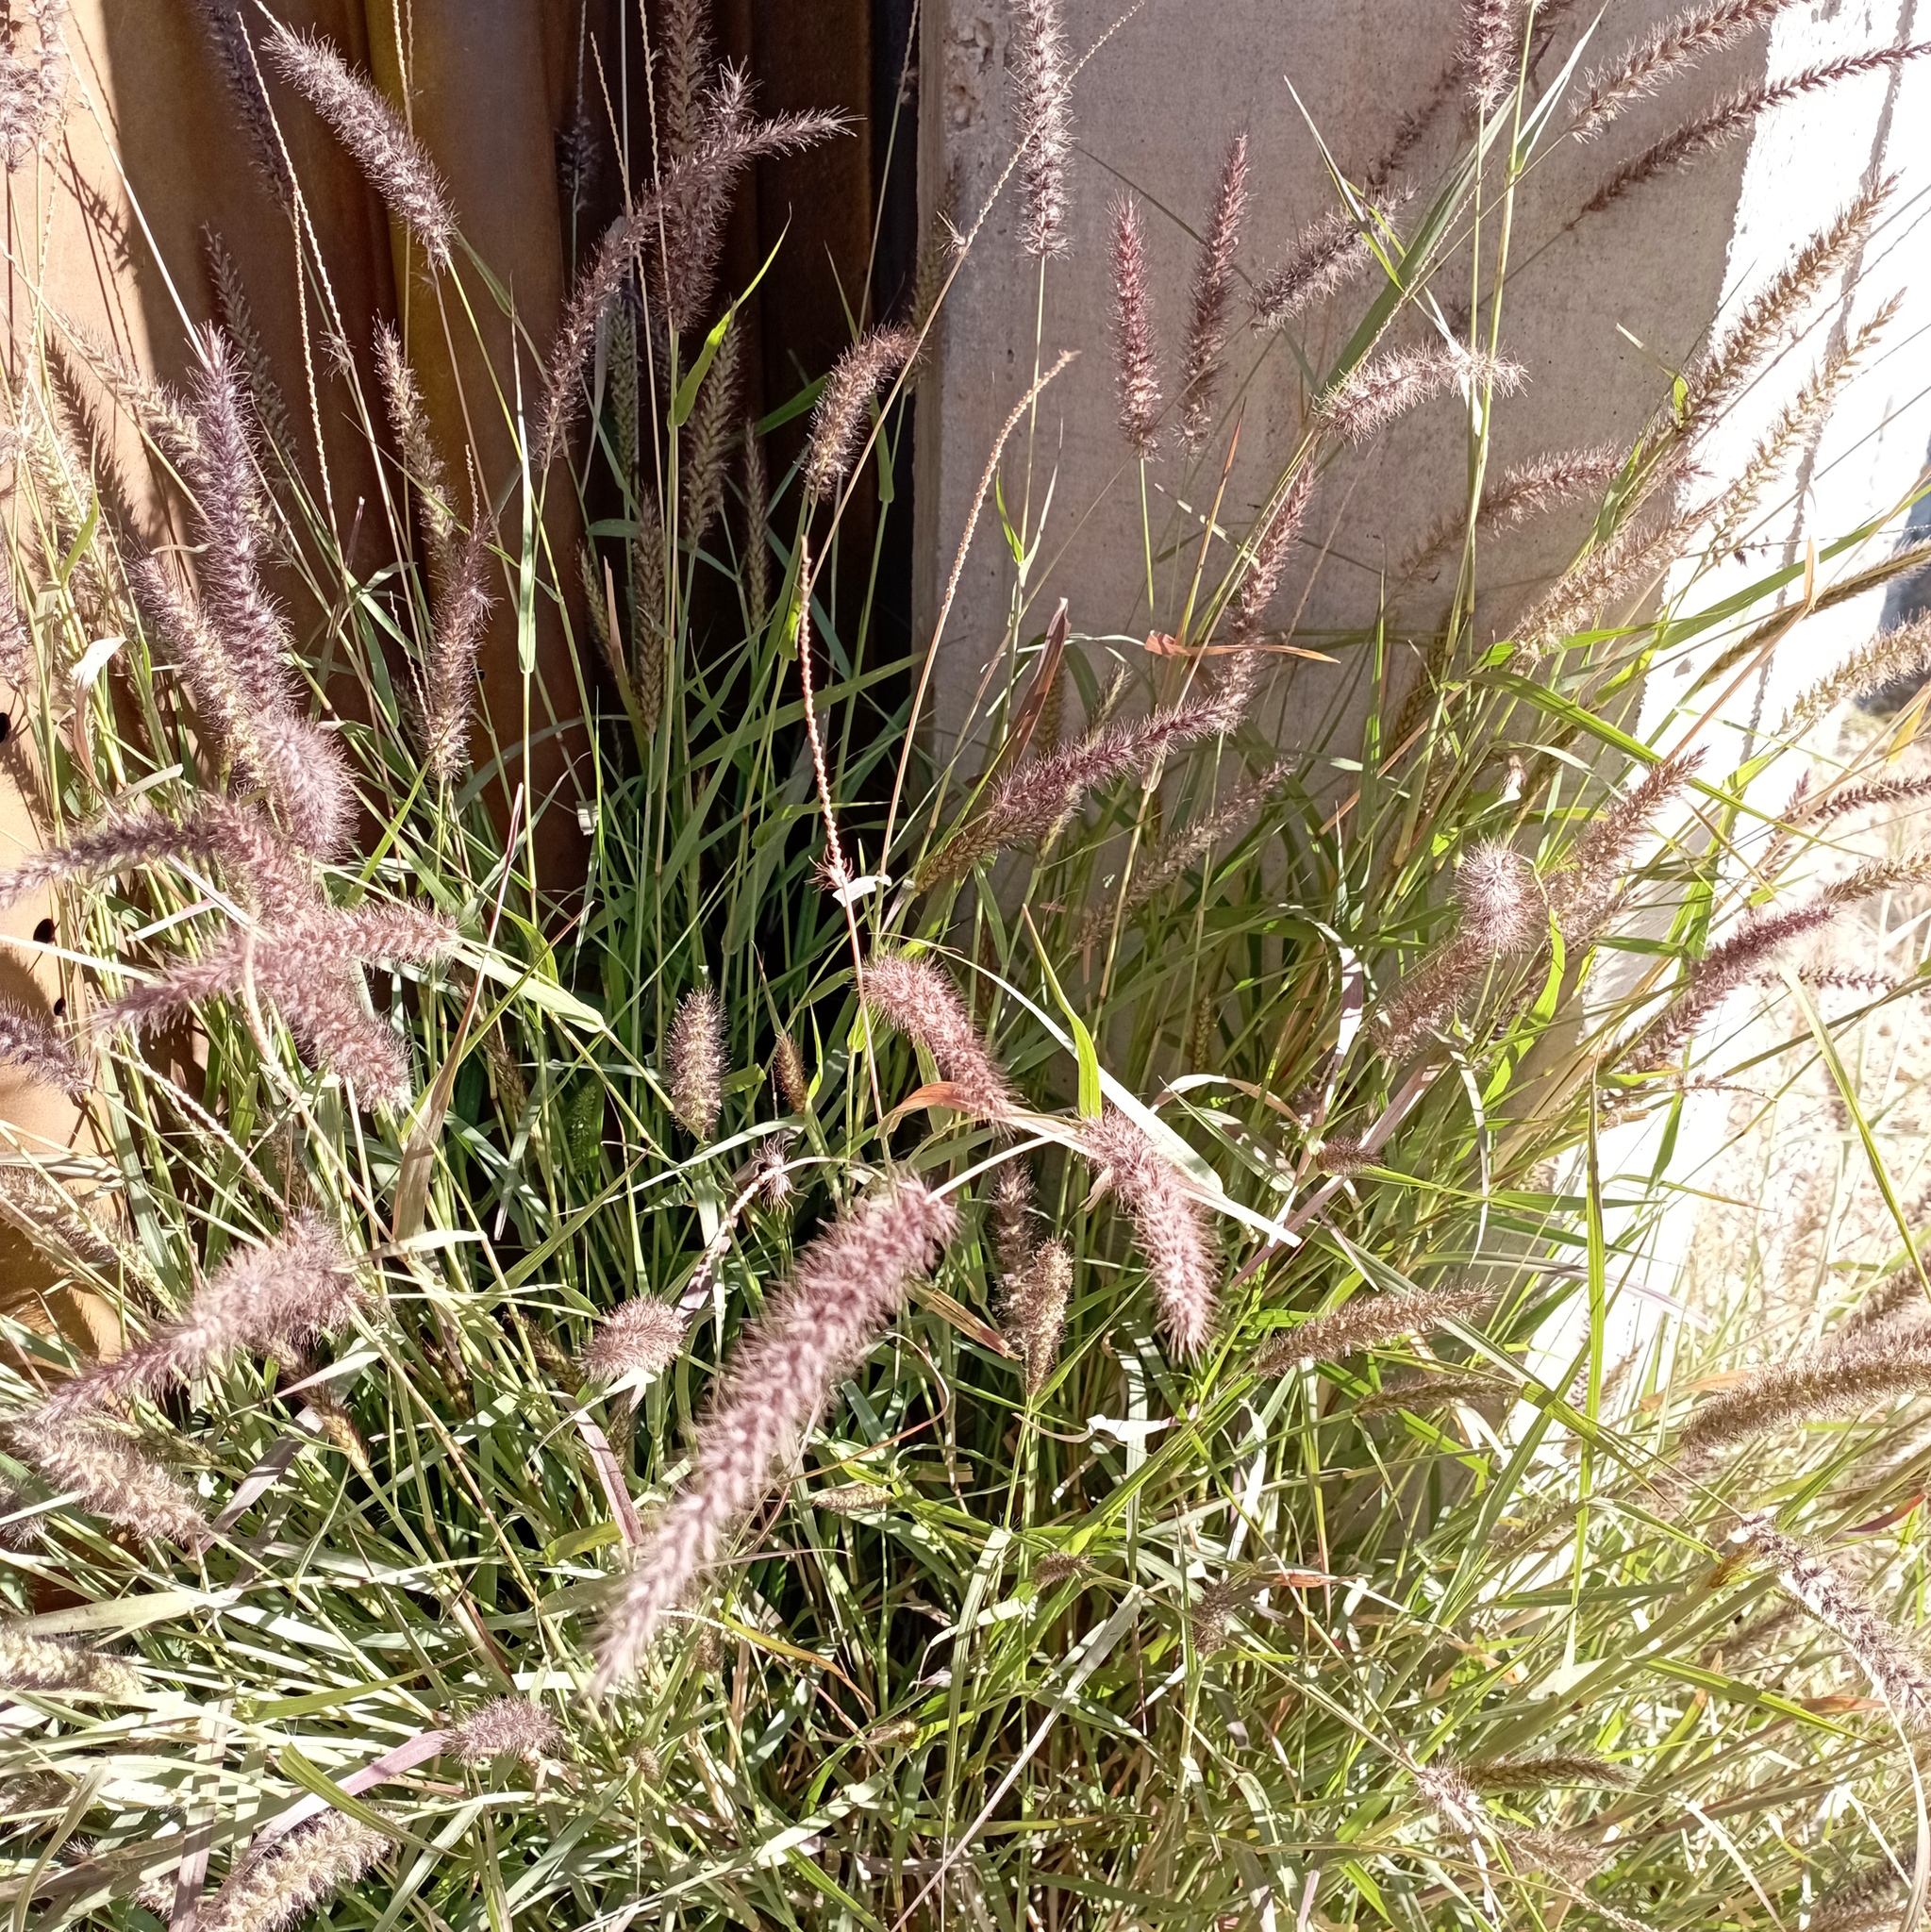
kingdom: Plantae
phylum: Tracheophyta
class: Liliopsida
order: Poales
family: Poaceae
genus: Cenchrus
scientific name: Cenchrus ciliaris
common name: Buffelgrass
